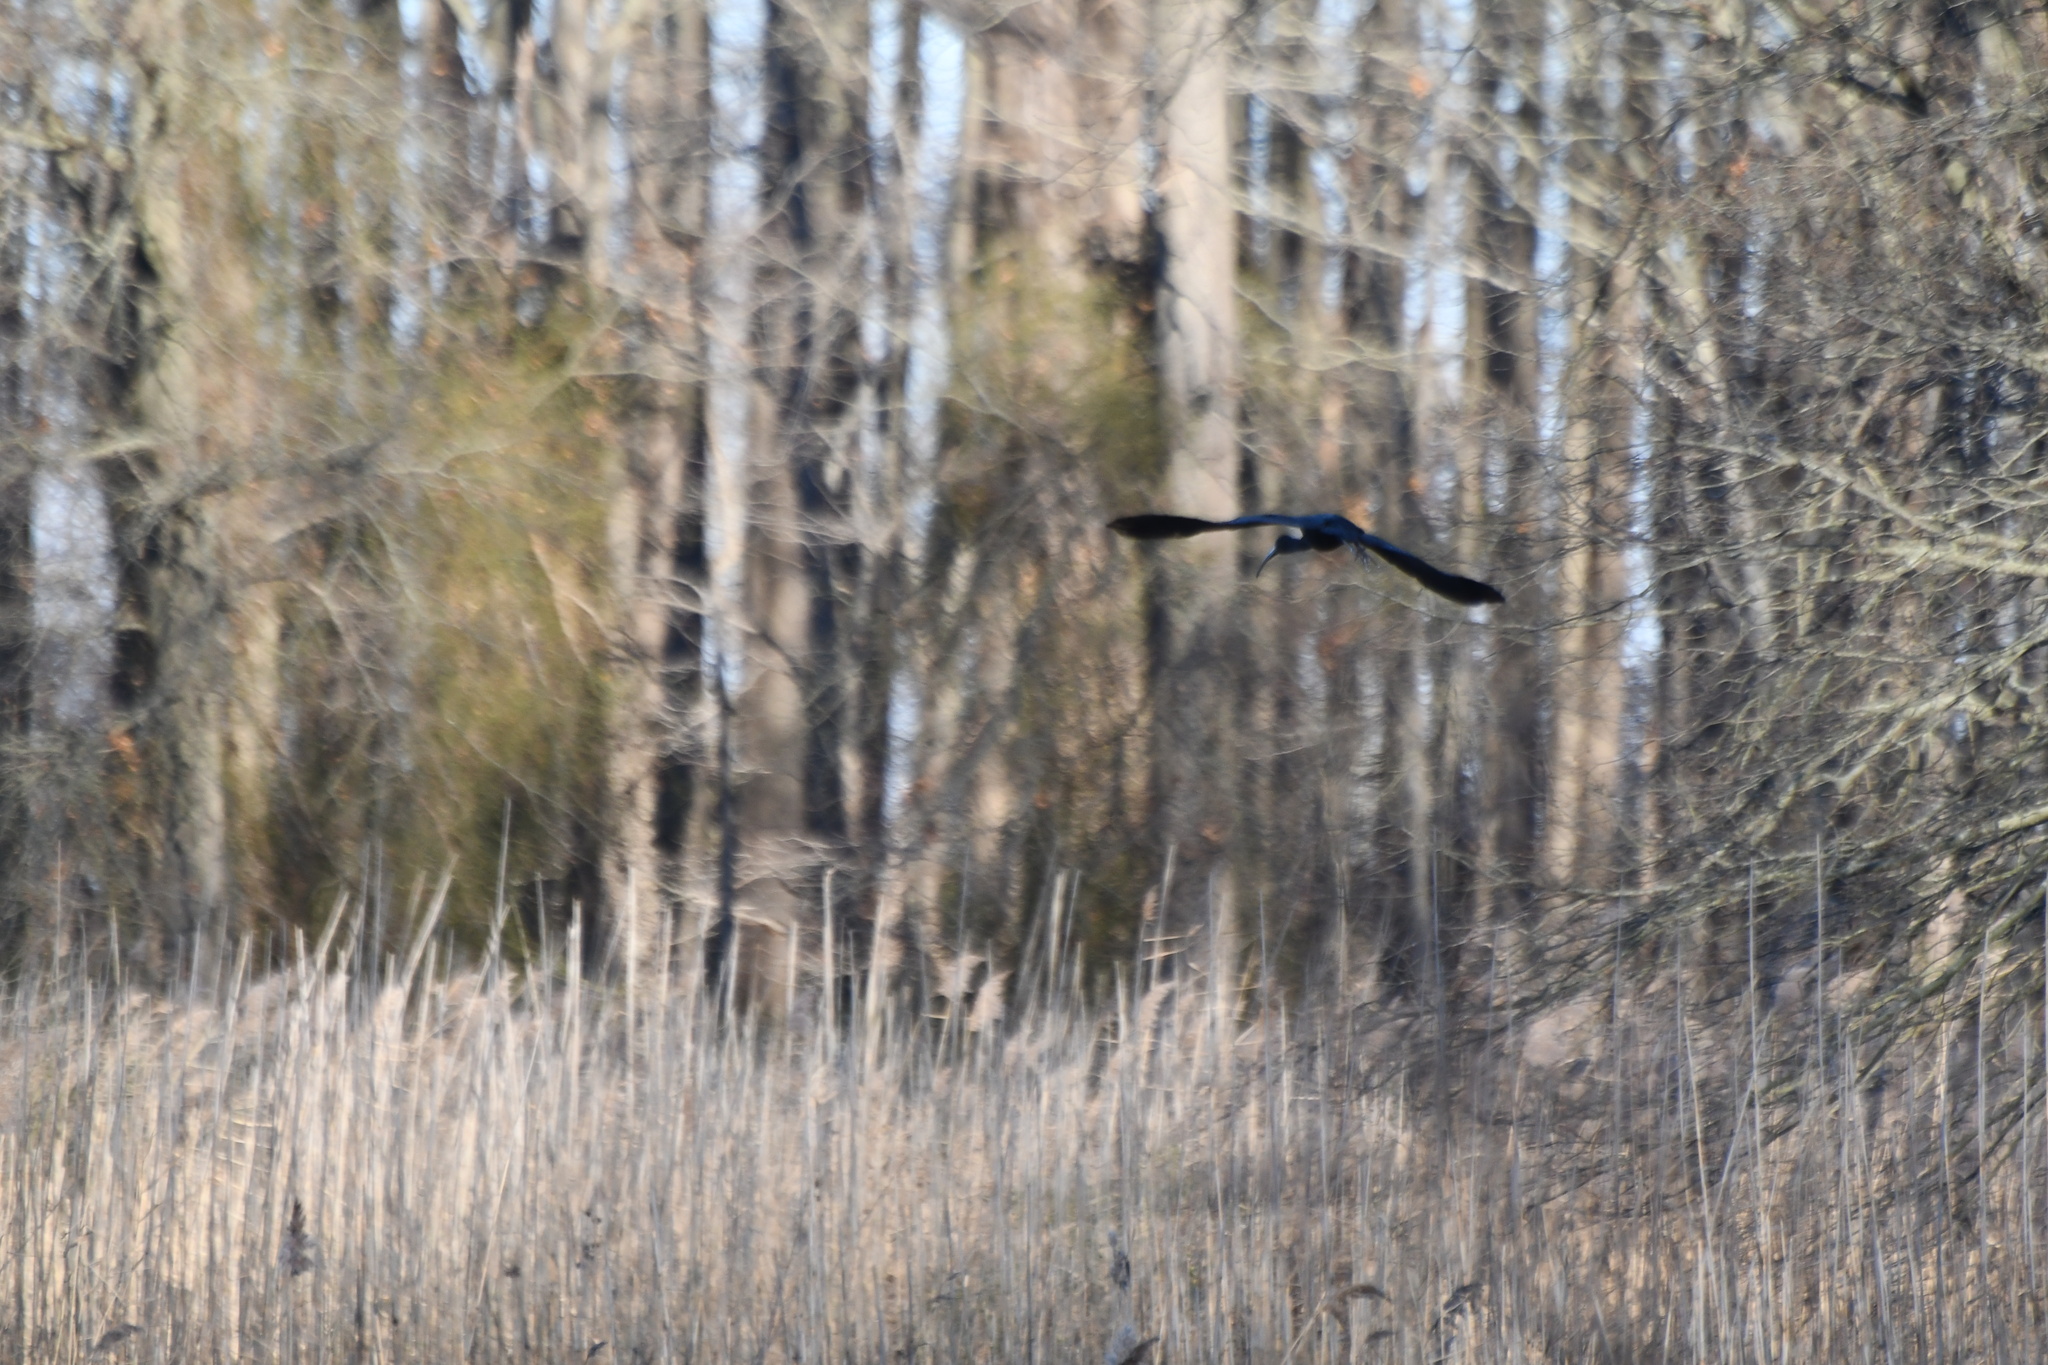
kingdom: Animalia
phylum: Chordata
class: Aves
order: Pelecaniformes
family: Threskiornithidae
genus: Plegadis
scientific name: Plegadis falcinellus
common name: Glossy ibis
